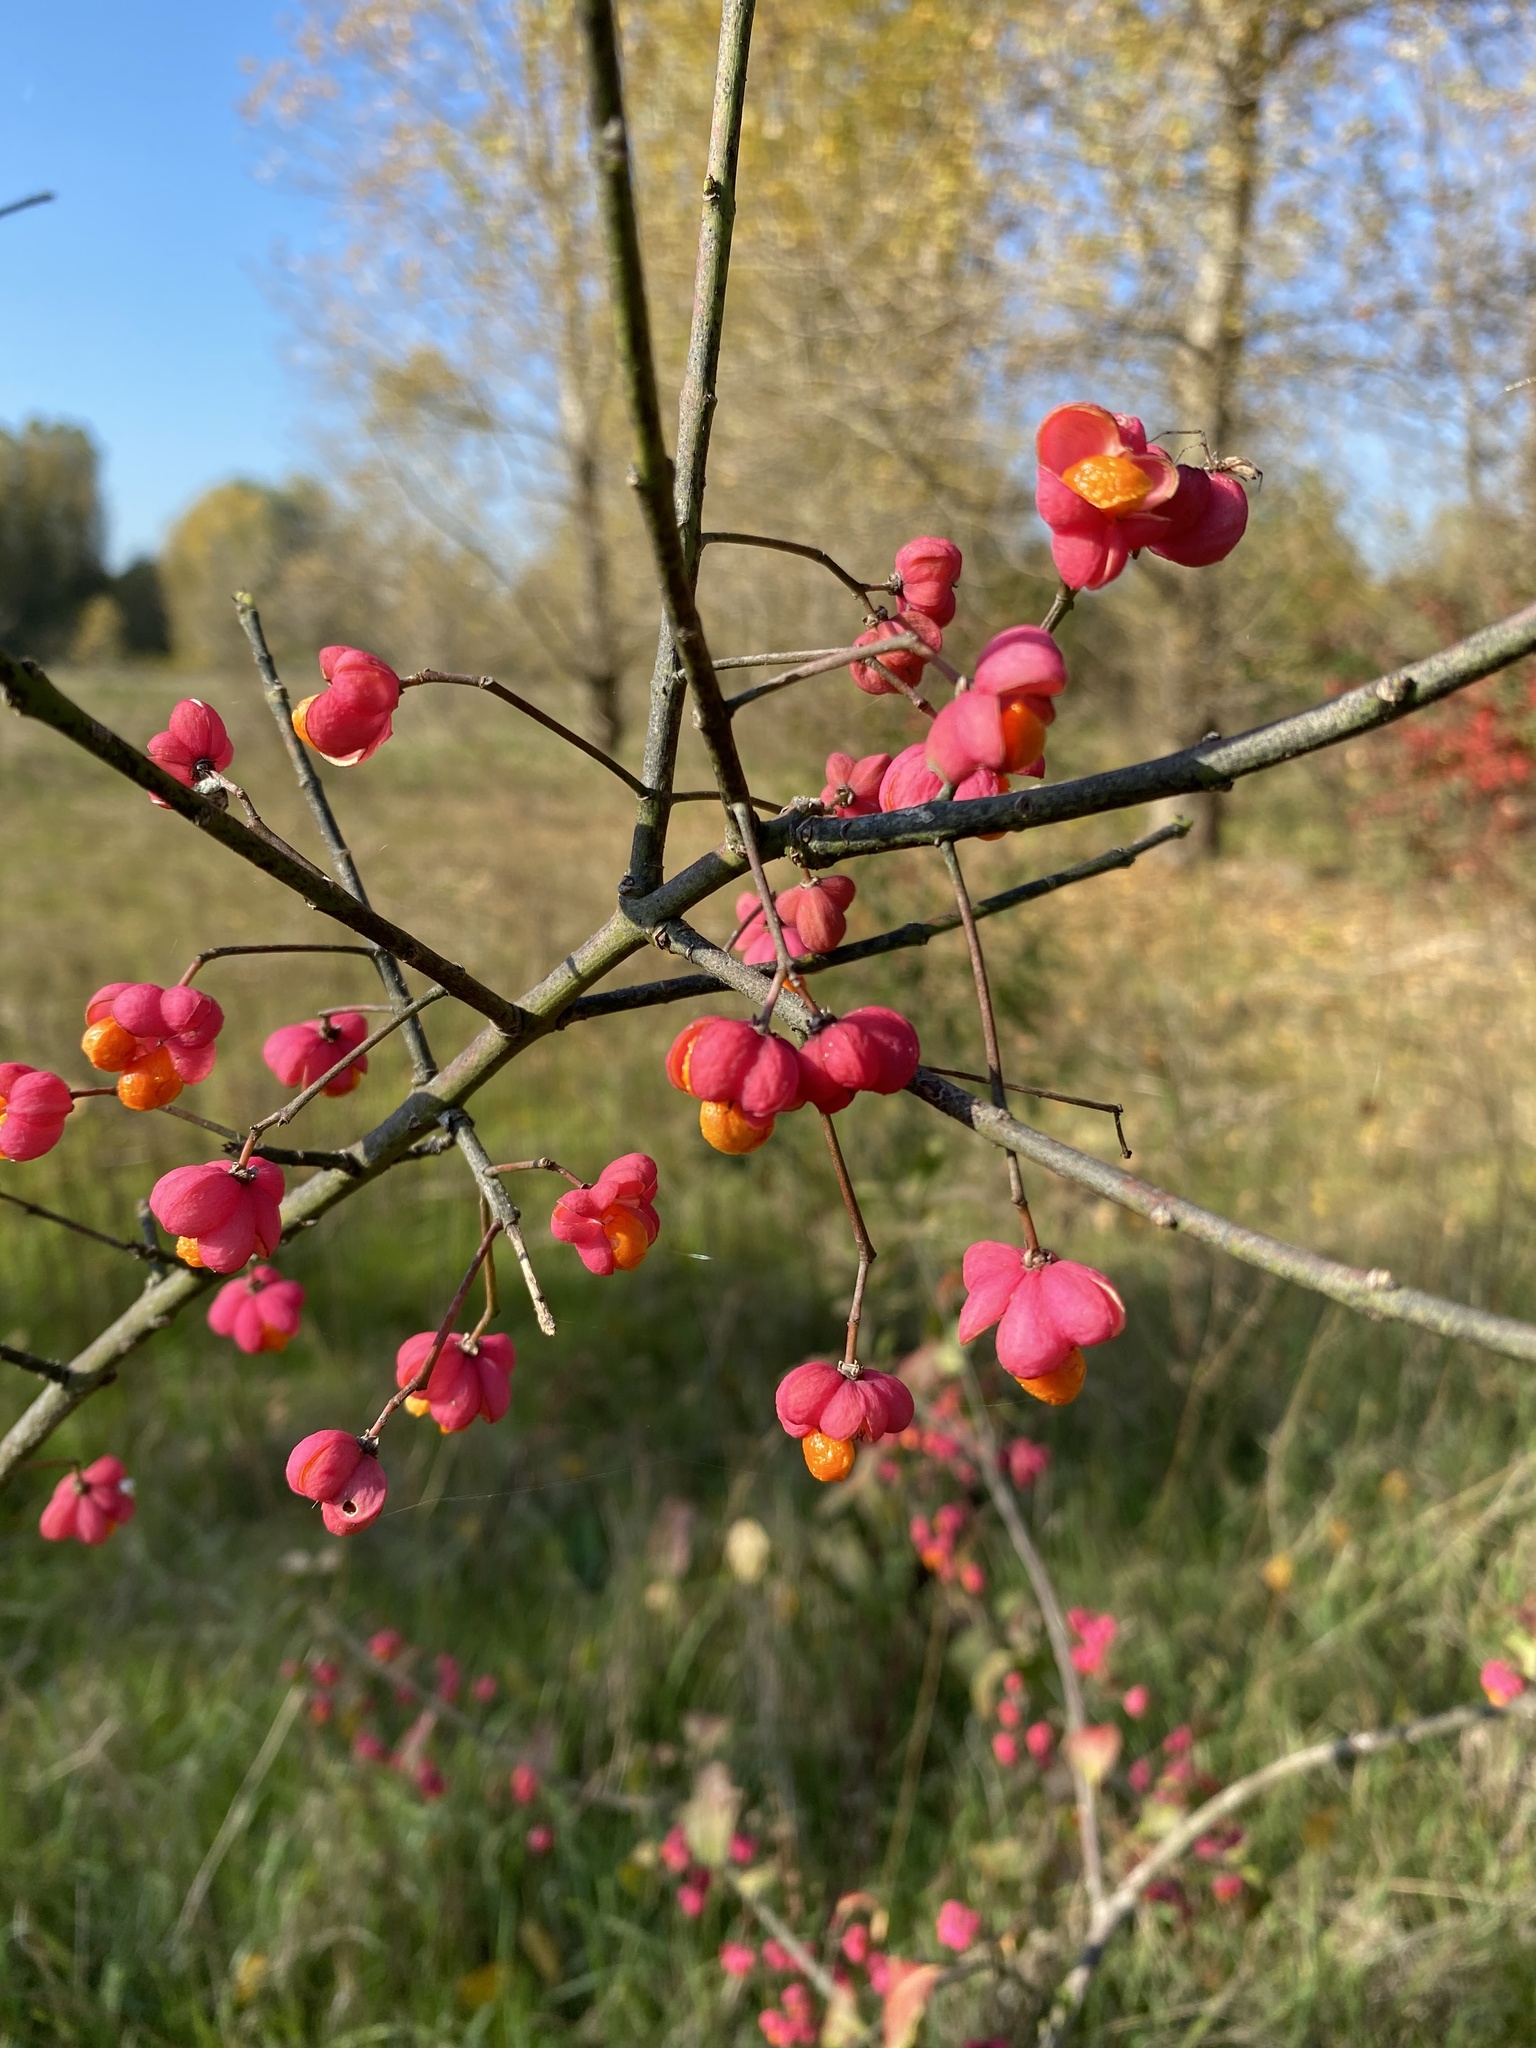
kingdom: Plantae
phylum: Tracheophyta
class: Magnoliopsida
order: Celastrales
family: Celastraceae
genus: Euonymus
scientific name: Euonymus europaeus
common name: Spindle
